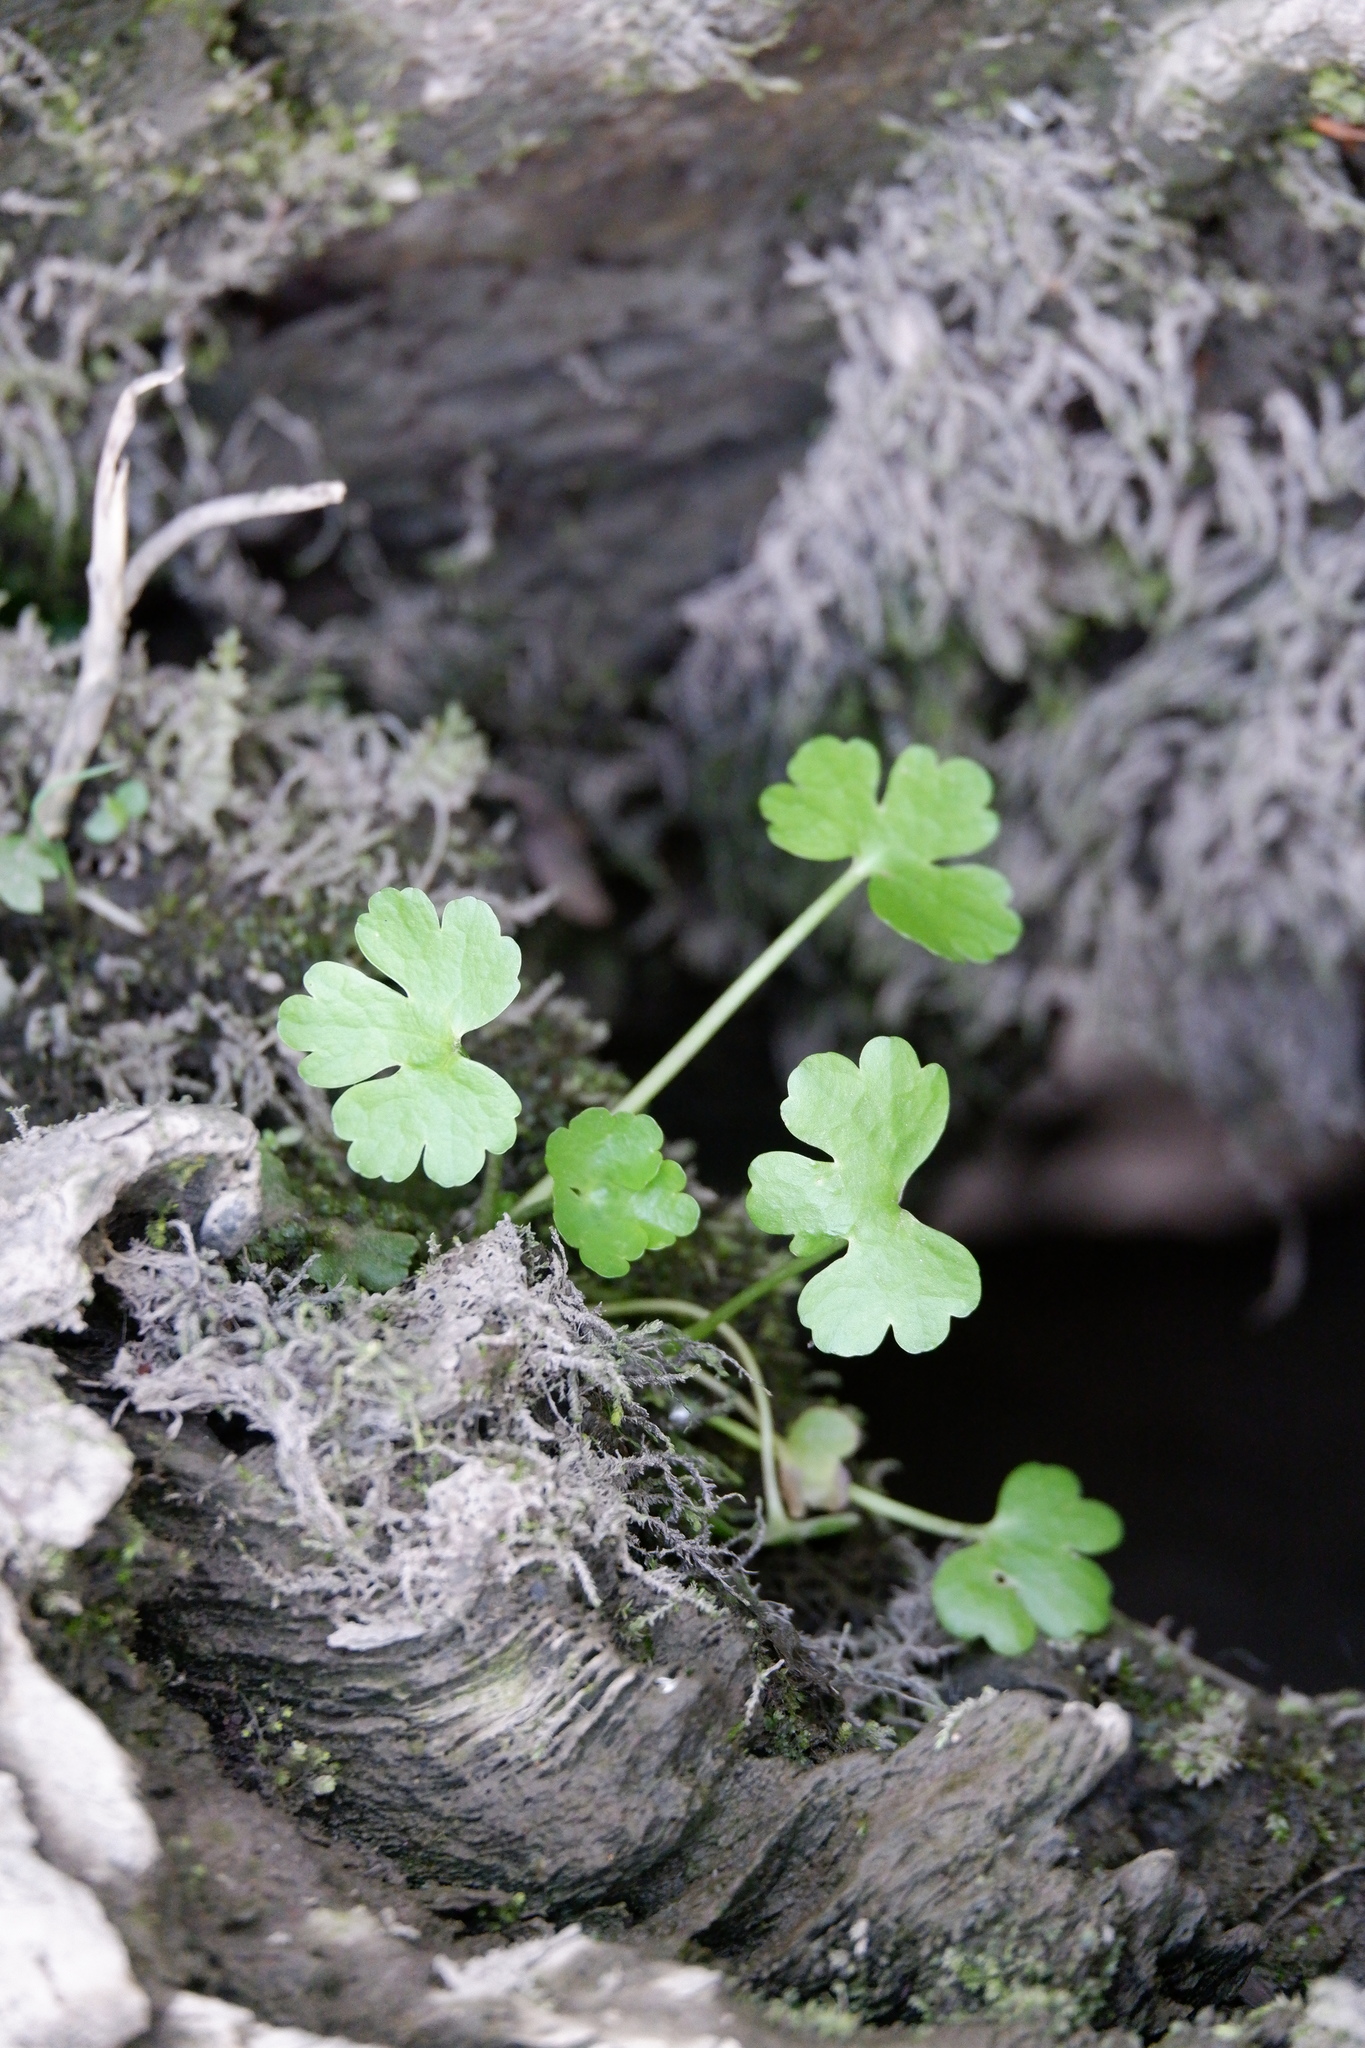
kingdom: Plantae
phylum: Tracheophyta
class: Magnoliopsida
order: Ranunculales
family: Ranunculaceae
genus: Ranunculus
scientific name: Ranunculus sceleratus
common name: Celery-leaved buttercup
